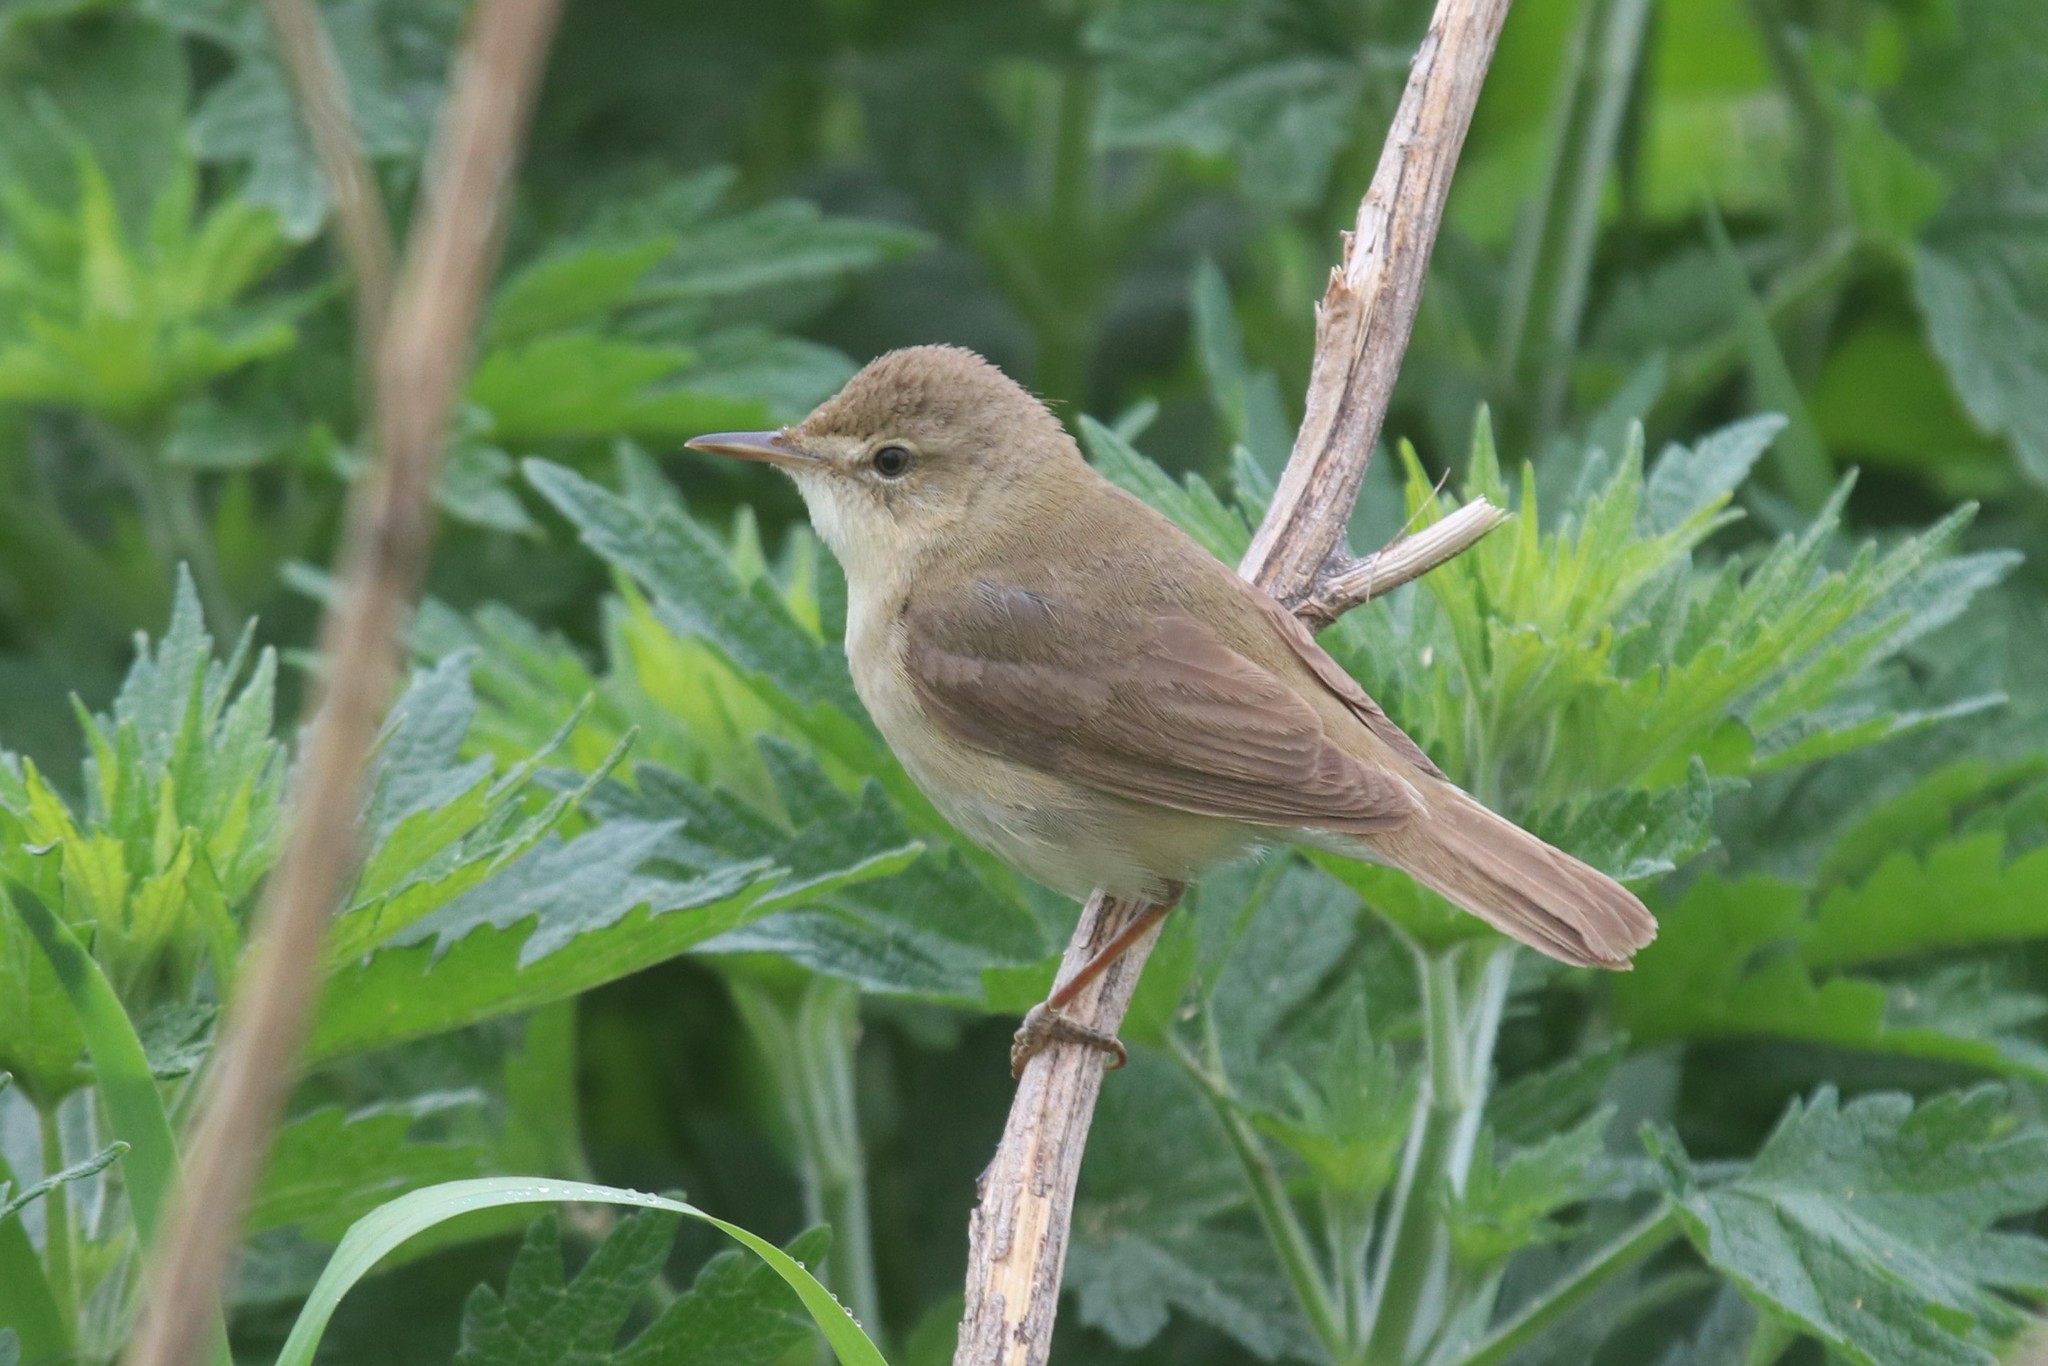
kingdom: Animalia
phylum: Chordata
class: Aves
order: Passeriformes
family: Acrocephalidae
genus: Acrocephalus
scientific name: Acrocephalus dumetorum
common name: Blyth's reed warbler
